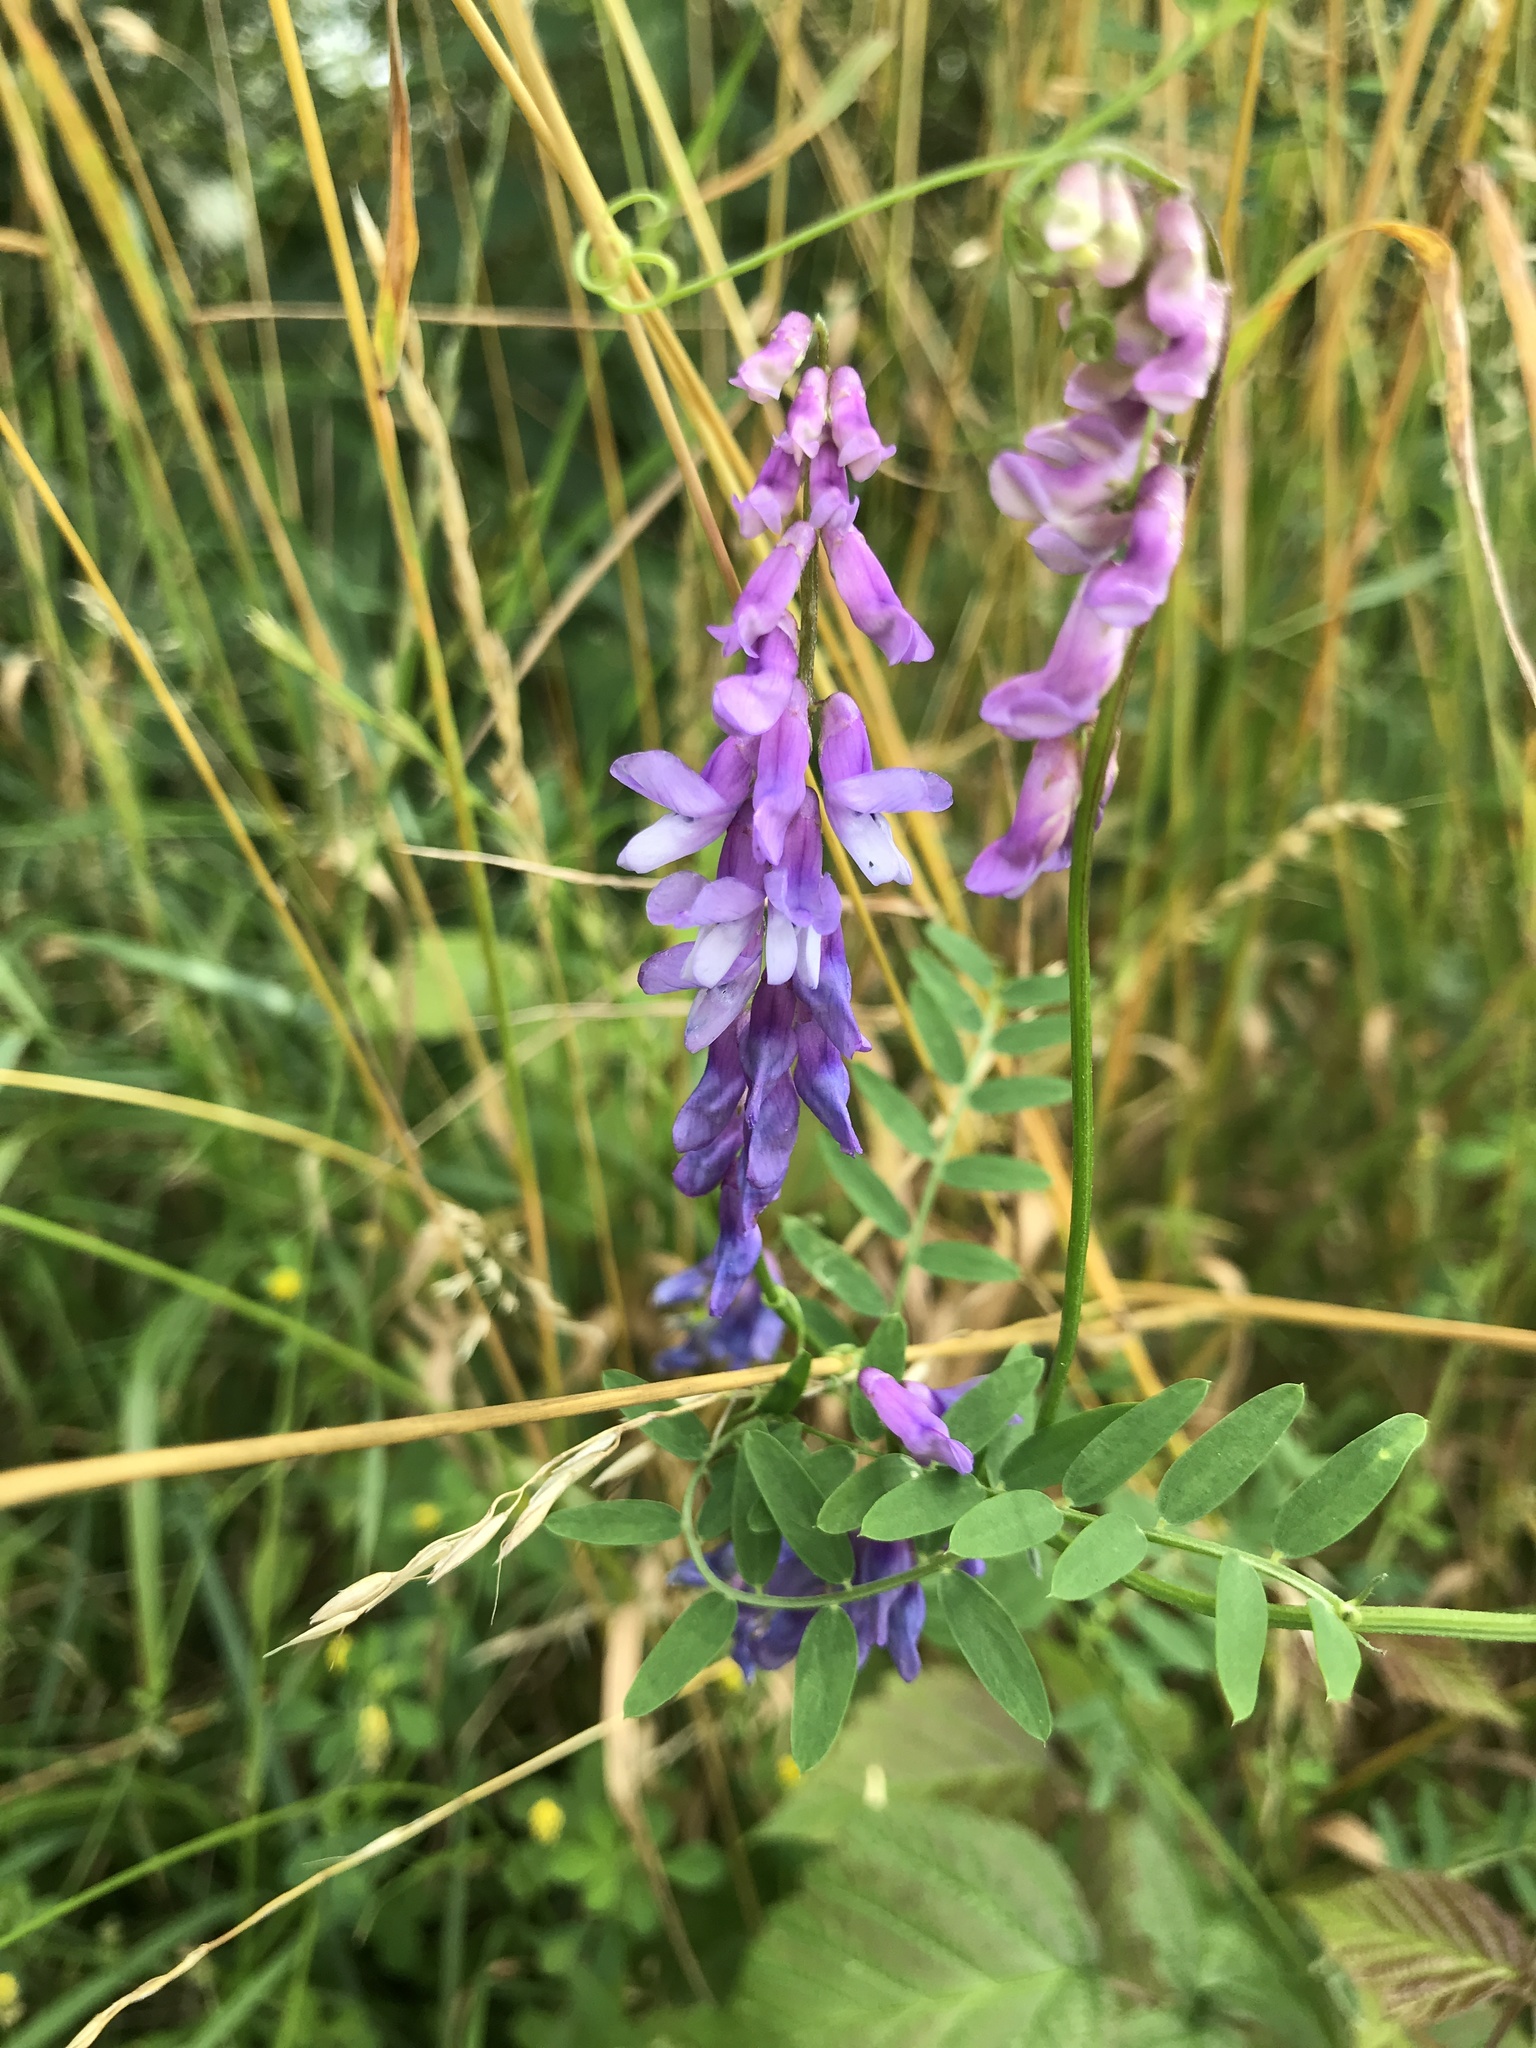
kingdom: Plantae
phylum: Tracheophyta
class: Magnoliopsida
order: Fabales
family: Fabaceae
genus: Vicia
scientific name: Vicia cracca
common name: Bird vetch
